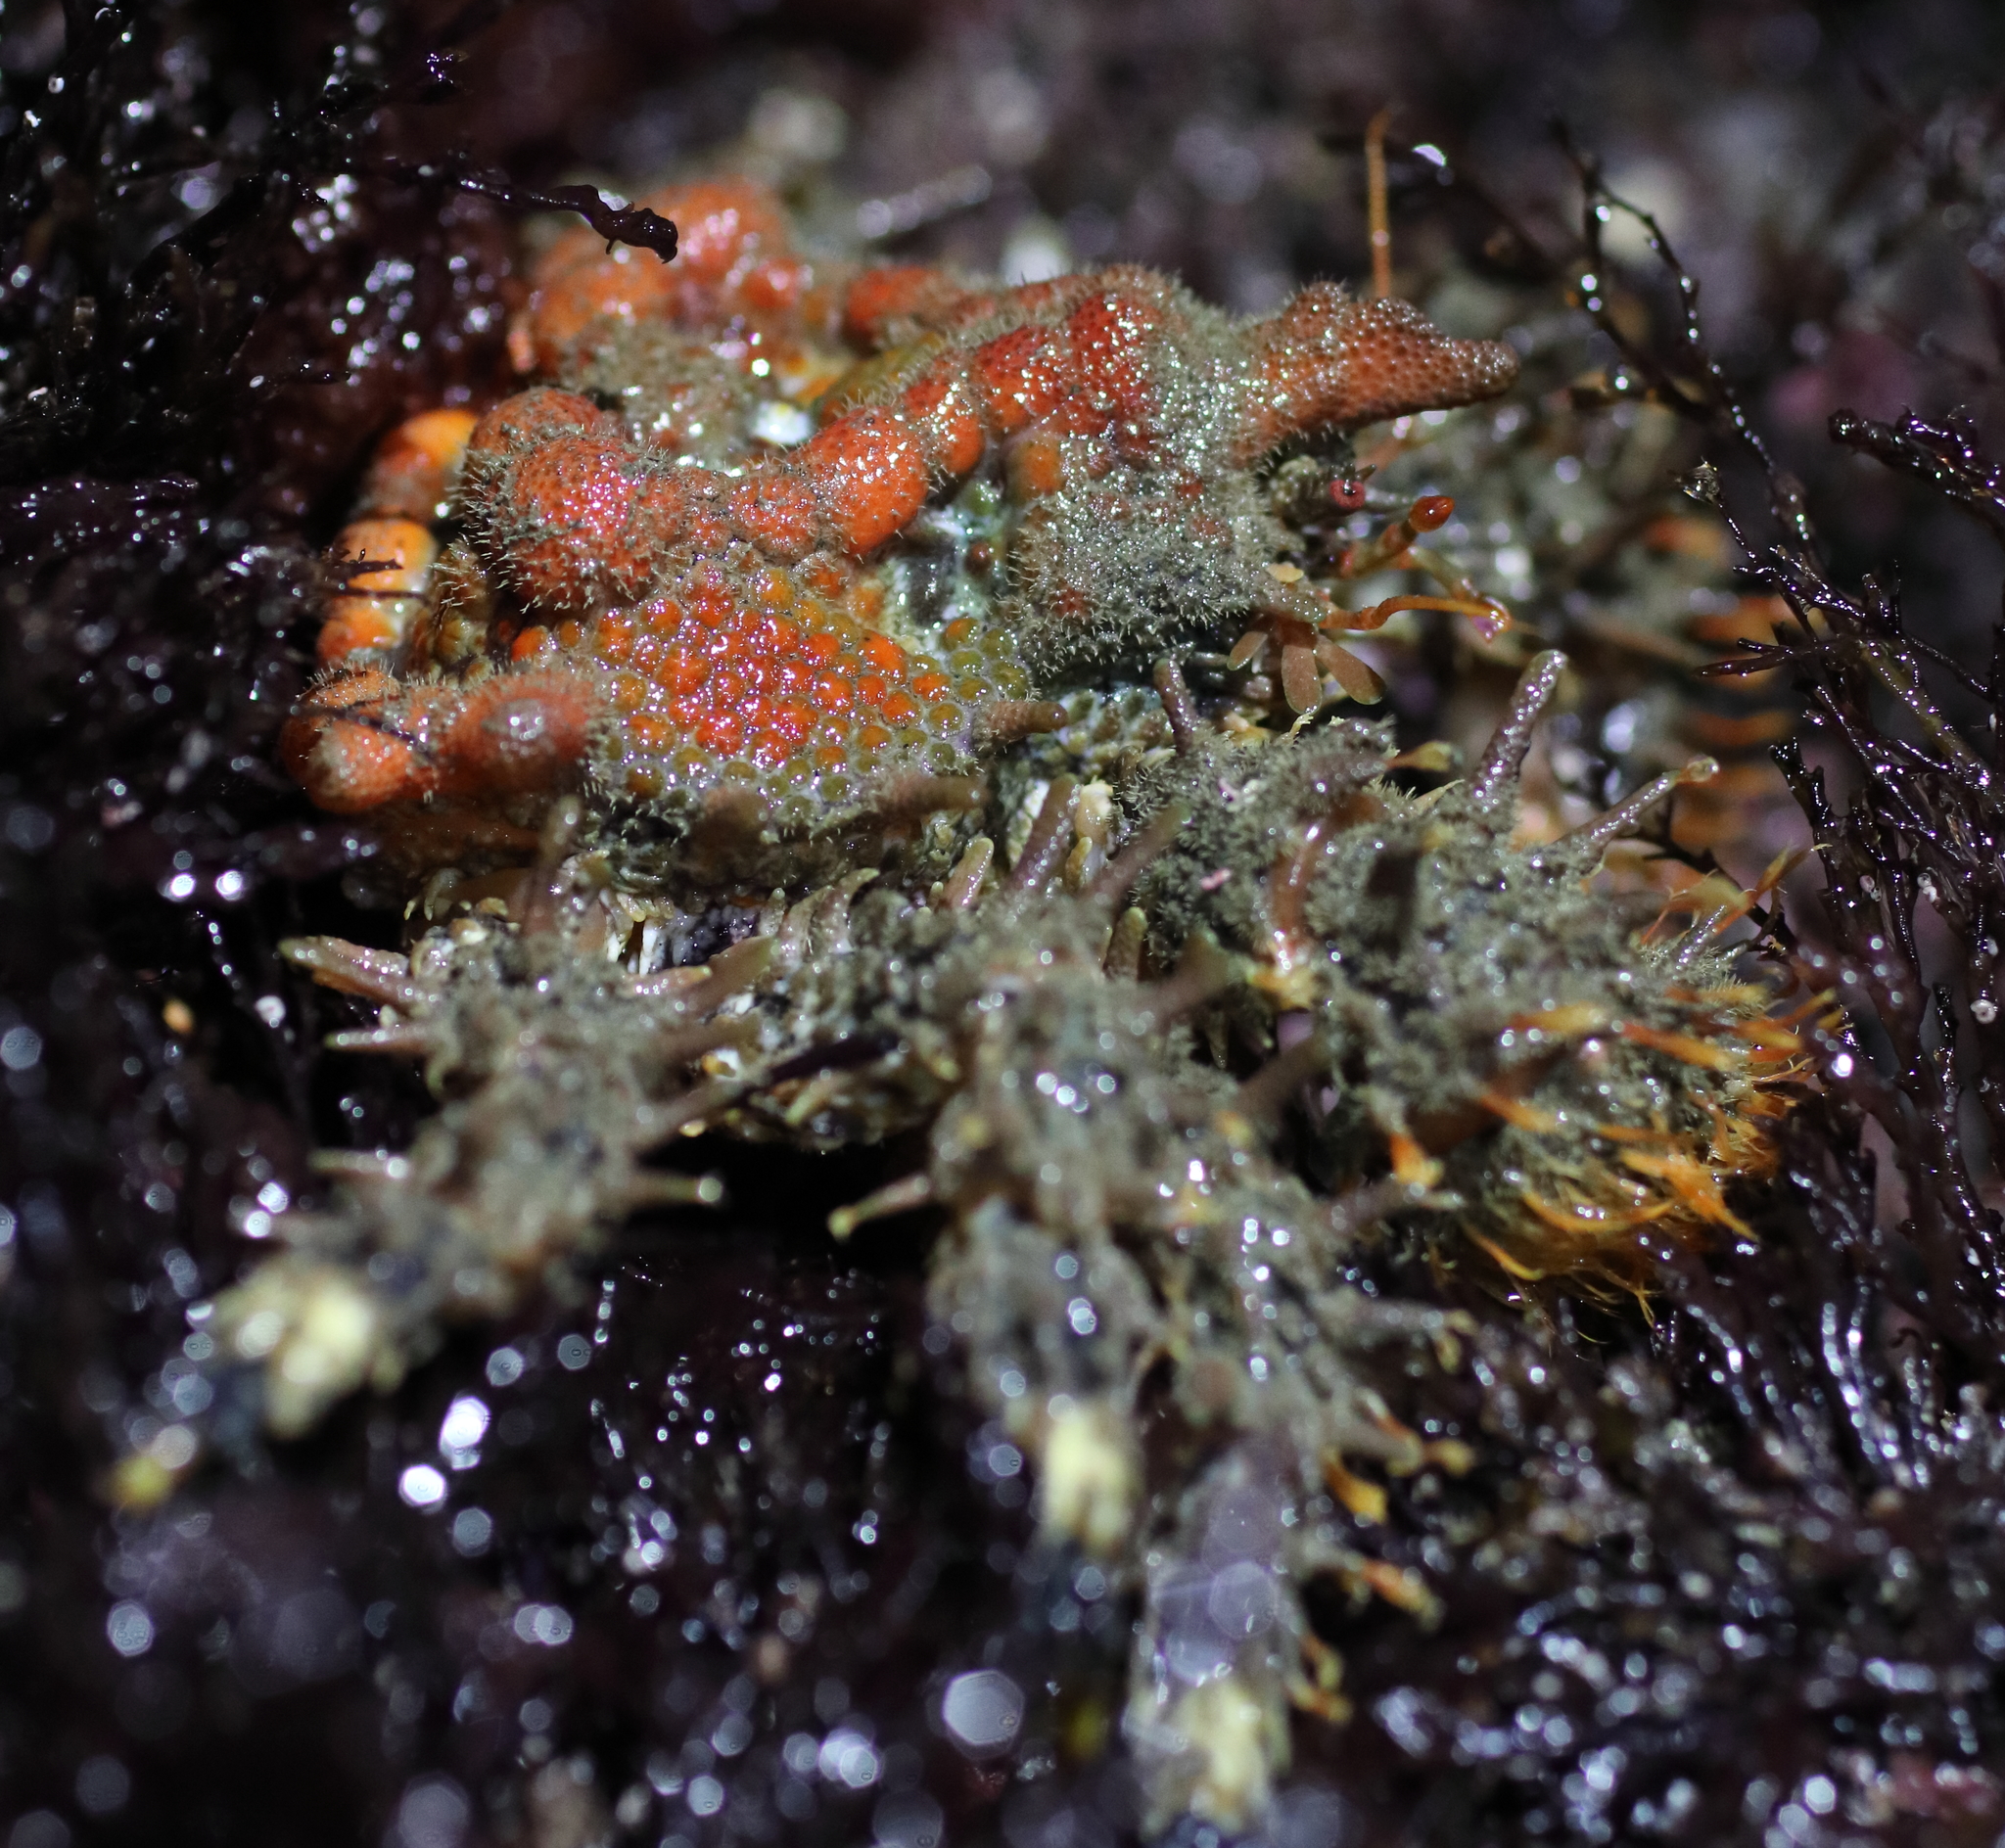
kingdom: Animalia
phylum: Arthropoda
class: Malacostraca
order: Decapoda
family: Lithodidae
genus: Phyllolithodes
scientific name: Phyllolithodes papillosus
